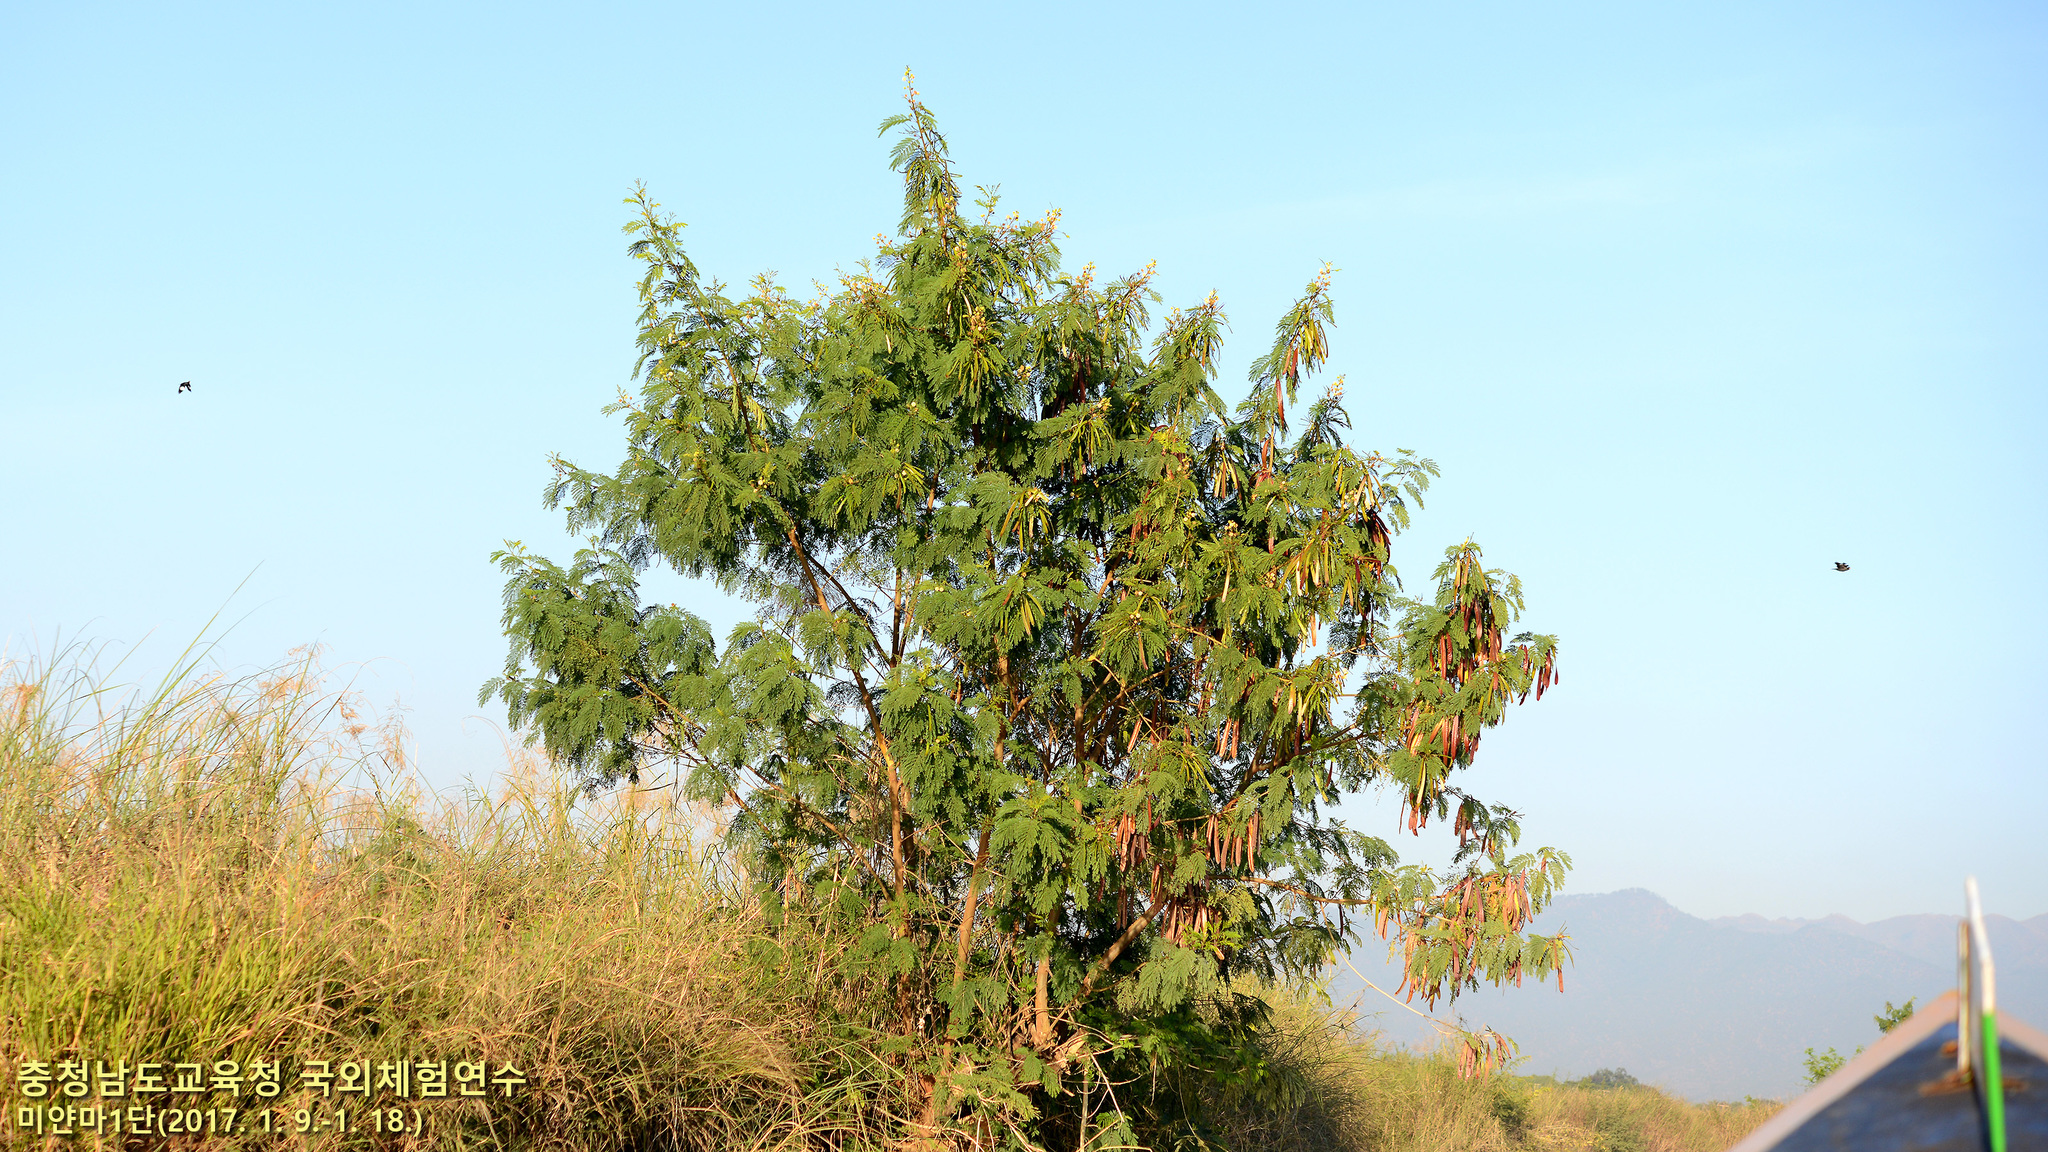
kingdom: Plantae
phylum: Tracheophyta
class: Magnoliopsida
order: Fabales
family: Fabaceae
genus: Leucaena
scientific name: Leucaena leucocephala
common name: White leadtree
